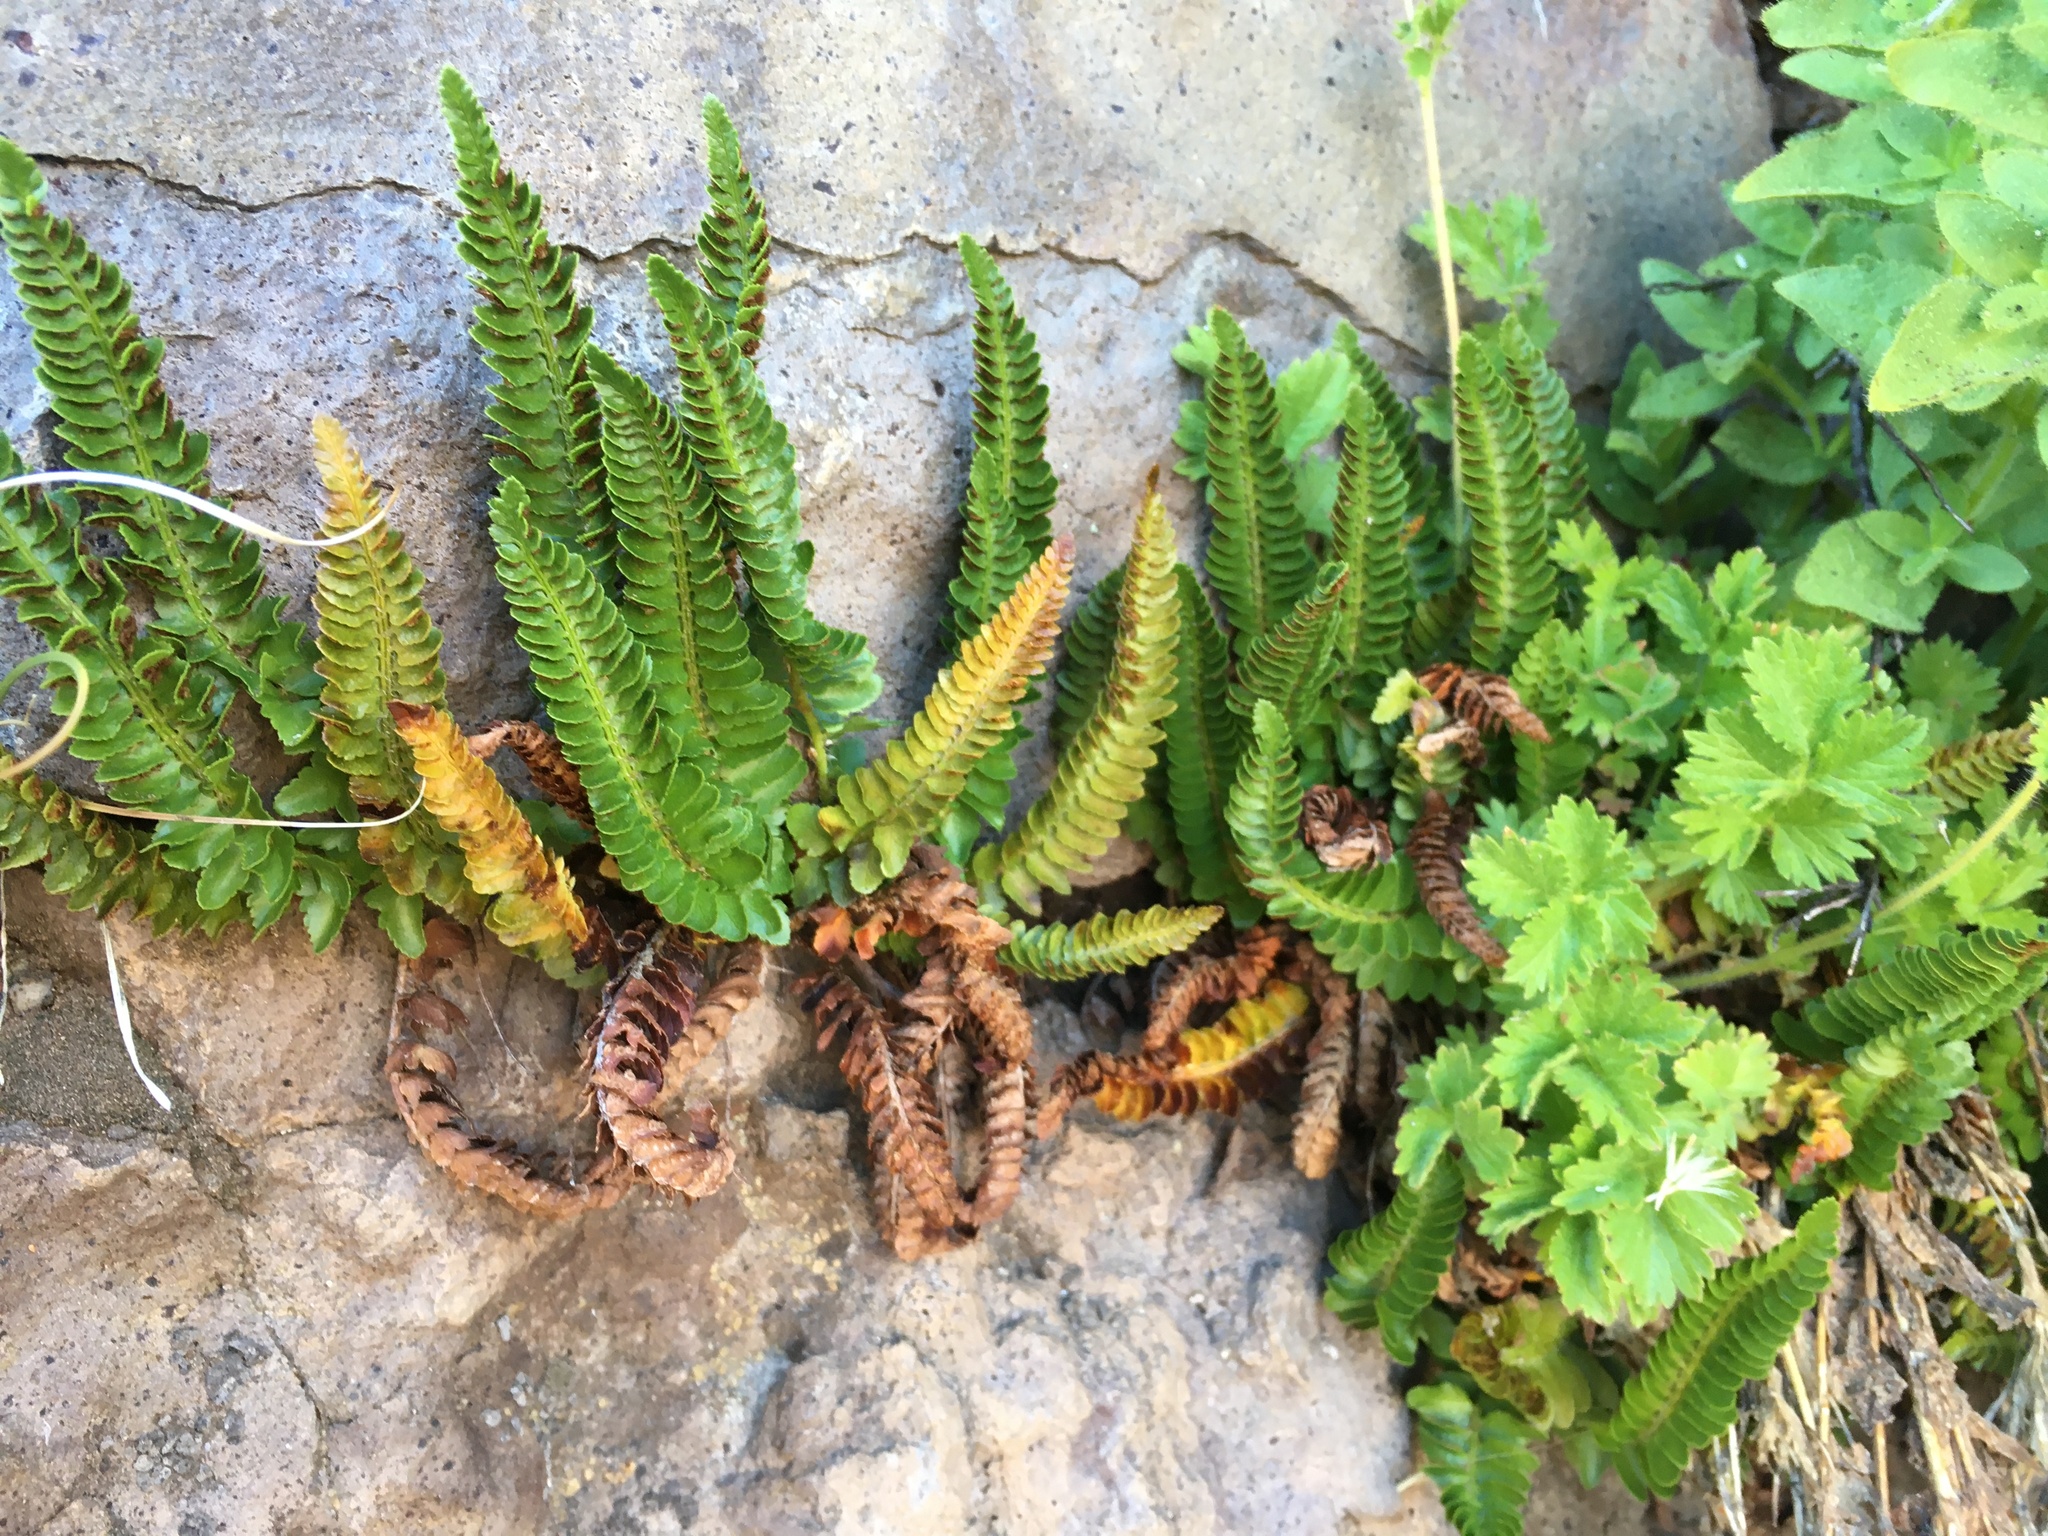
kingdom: Plantae
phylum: Tracheophyta
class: Polypodiopsida
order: Polypodiales
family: Dryopteridaceae
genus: Polystichum
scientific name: Polystichum scopulinum
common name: Eaton's shield fern
